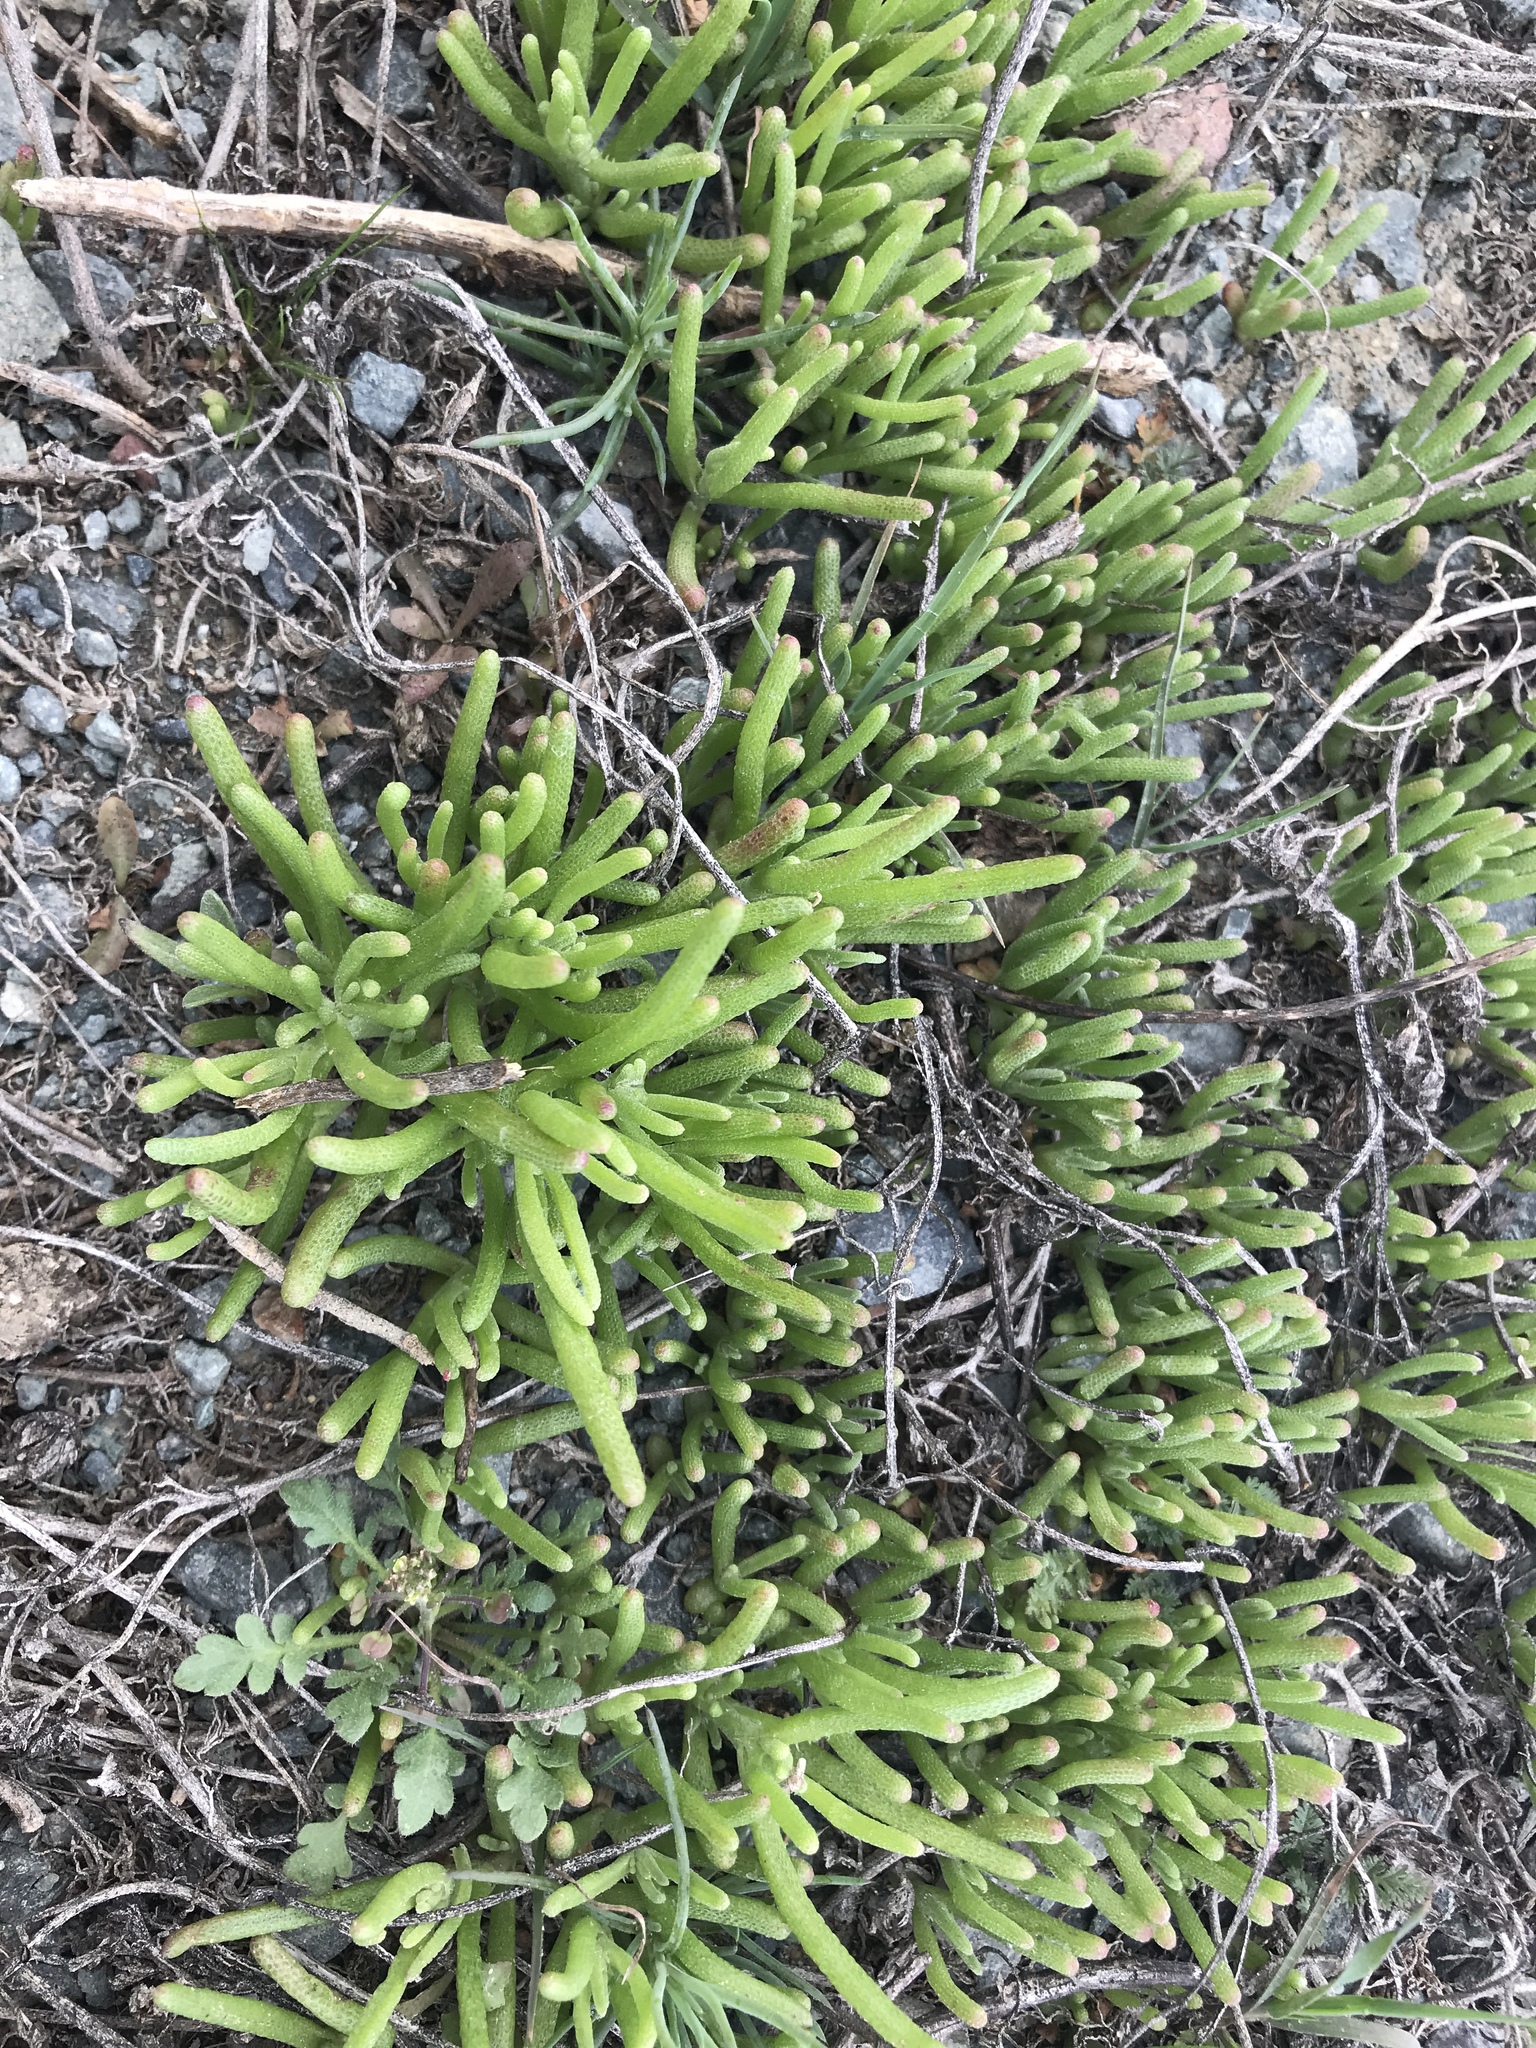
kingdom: Plantae
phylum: Tracheophyta
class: Magnoliopsida
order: Caryophyllales
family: Aizoaceae
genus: Mesembryanthemum
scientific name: Mesembryanthemum nodiflorum
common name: Slenderleaf iceplant
